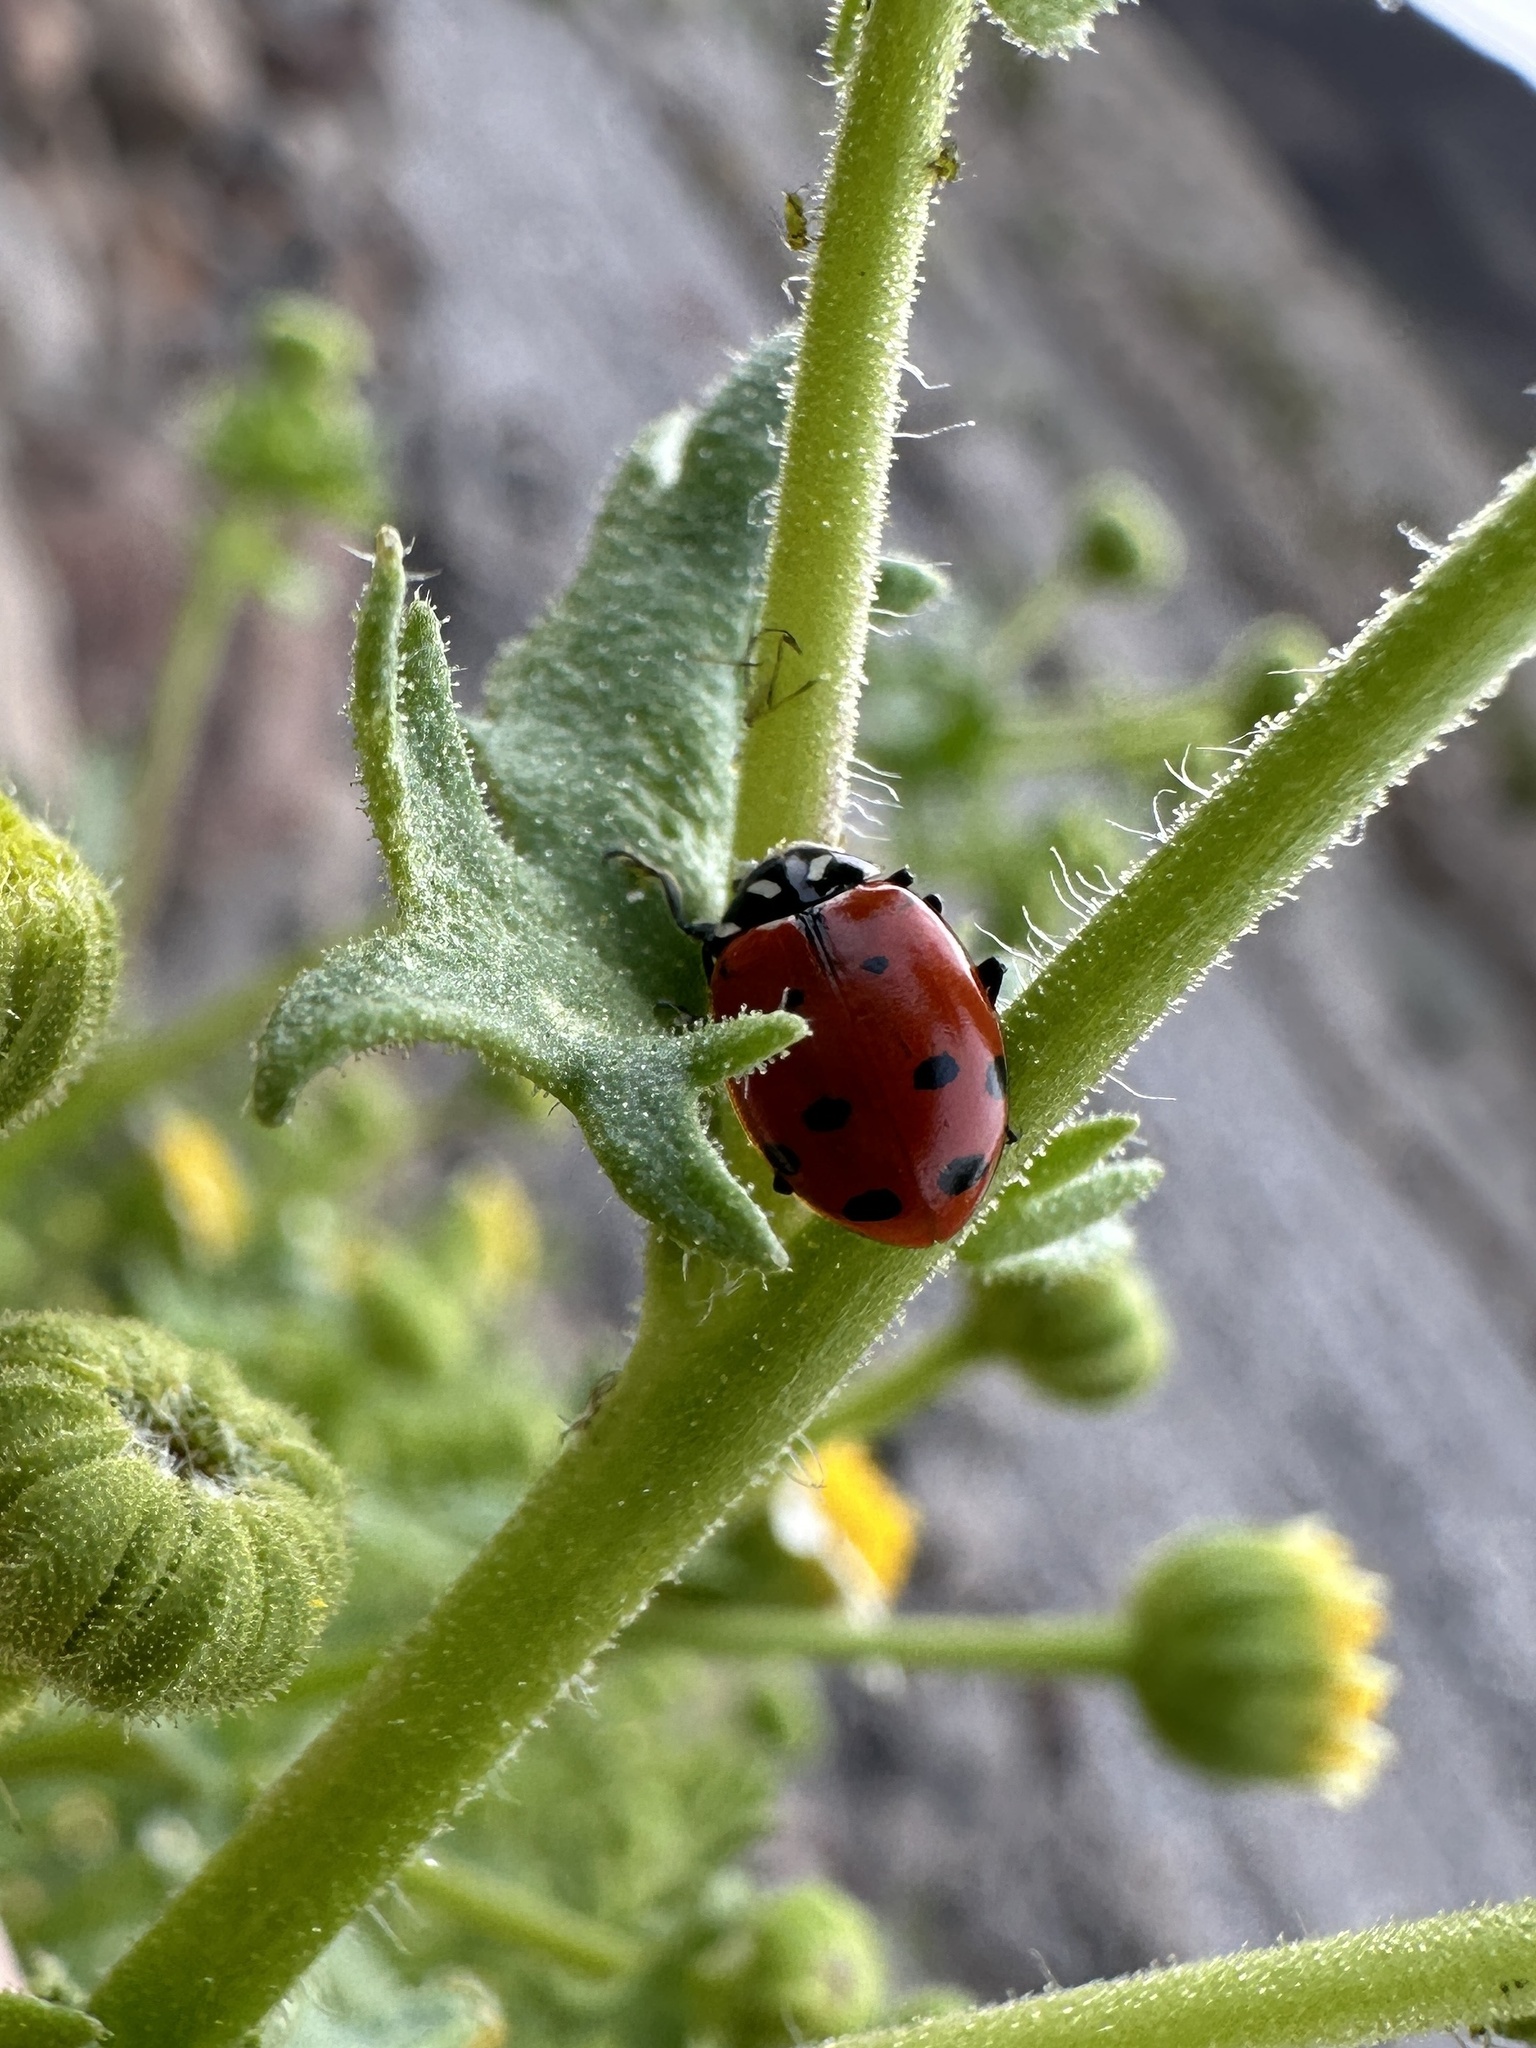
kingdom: Animalia
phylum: Arthropoda
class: Insecta
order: Coleoptera
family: Coccinellidae
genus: Hippodamia
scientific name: Hippodamia convergens
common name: Convergent lady beetle
